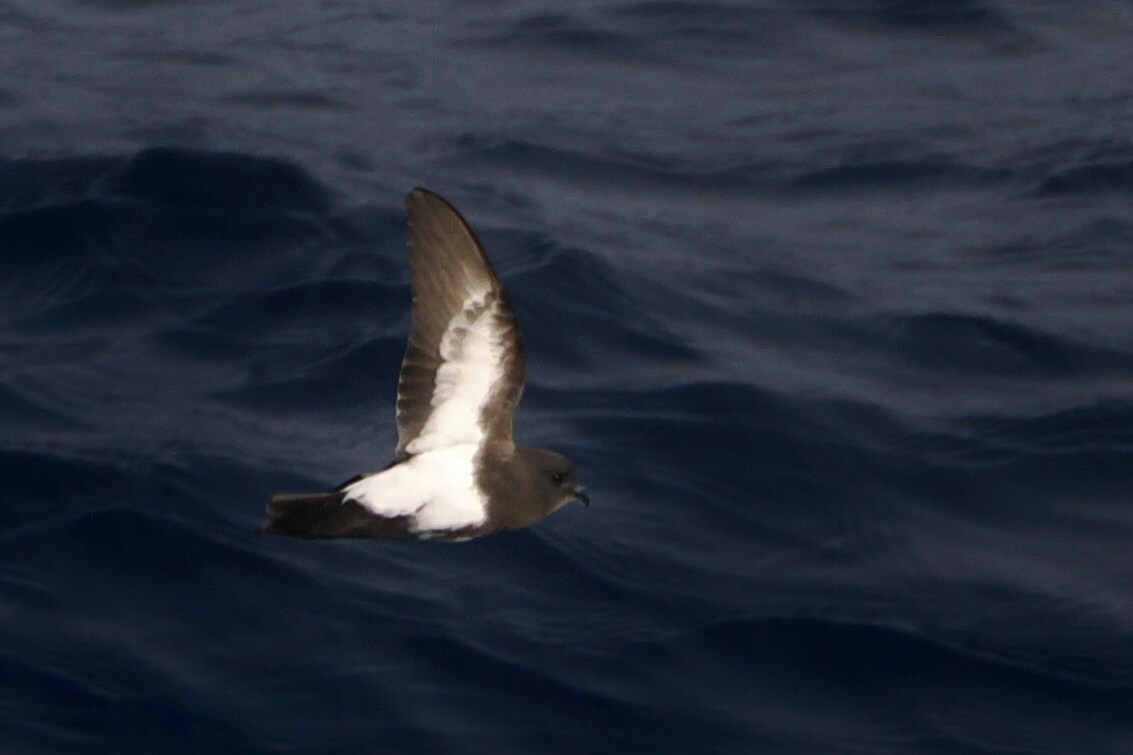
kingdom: Animalia
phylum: Chordata
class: Aves
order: Procellariiformes
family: Hydrobatidae
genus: Fregetta
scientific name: Fregetta tropica
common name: Black-bellied storm-petrel
